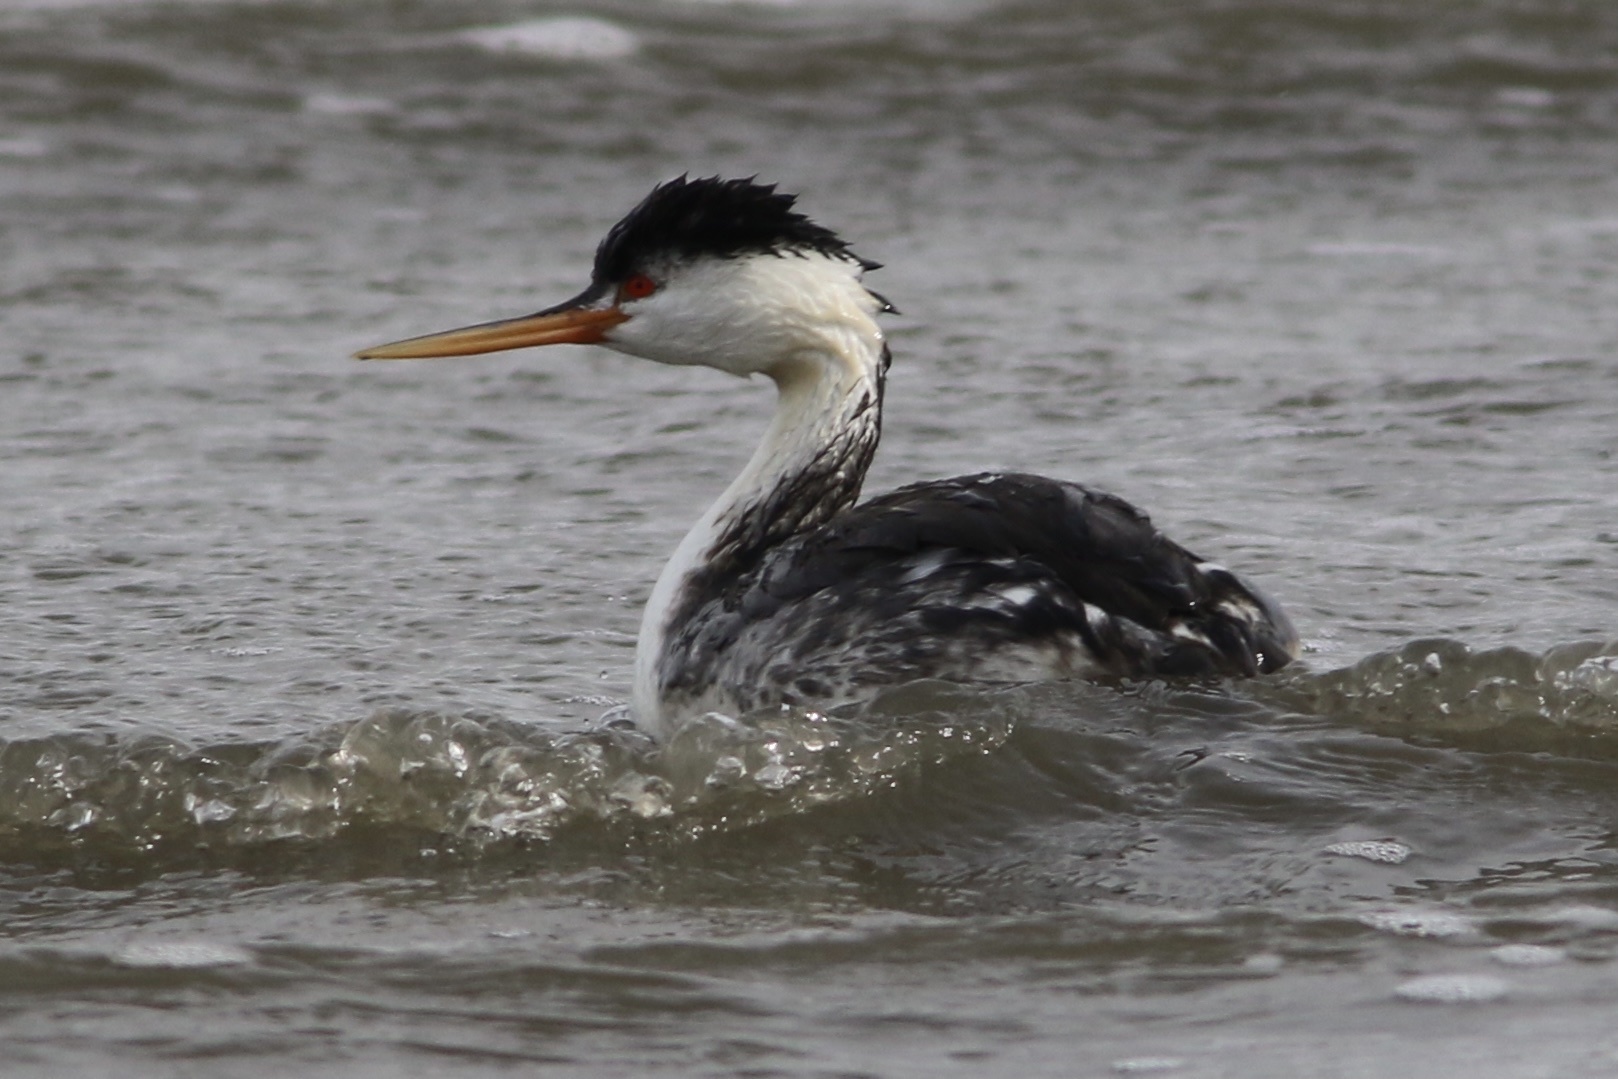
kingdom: Animalia
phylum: Chordata
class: Aves
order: Podicipediformes
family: Podicipedidae
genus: Aechmophorus
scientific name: Aechmophorus clarkii
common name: Clark's grebe
